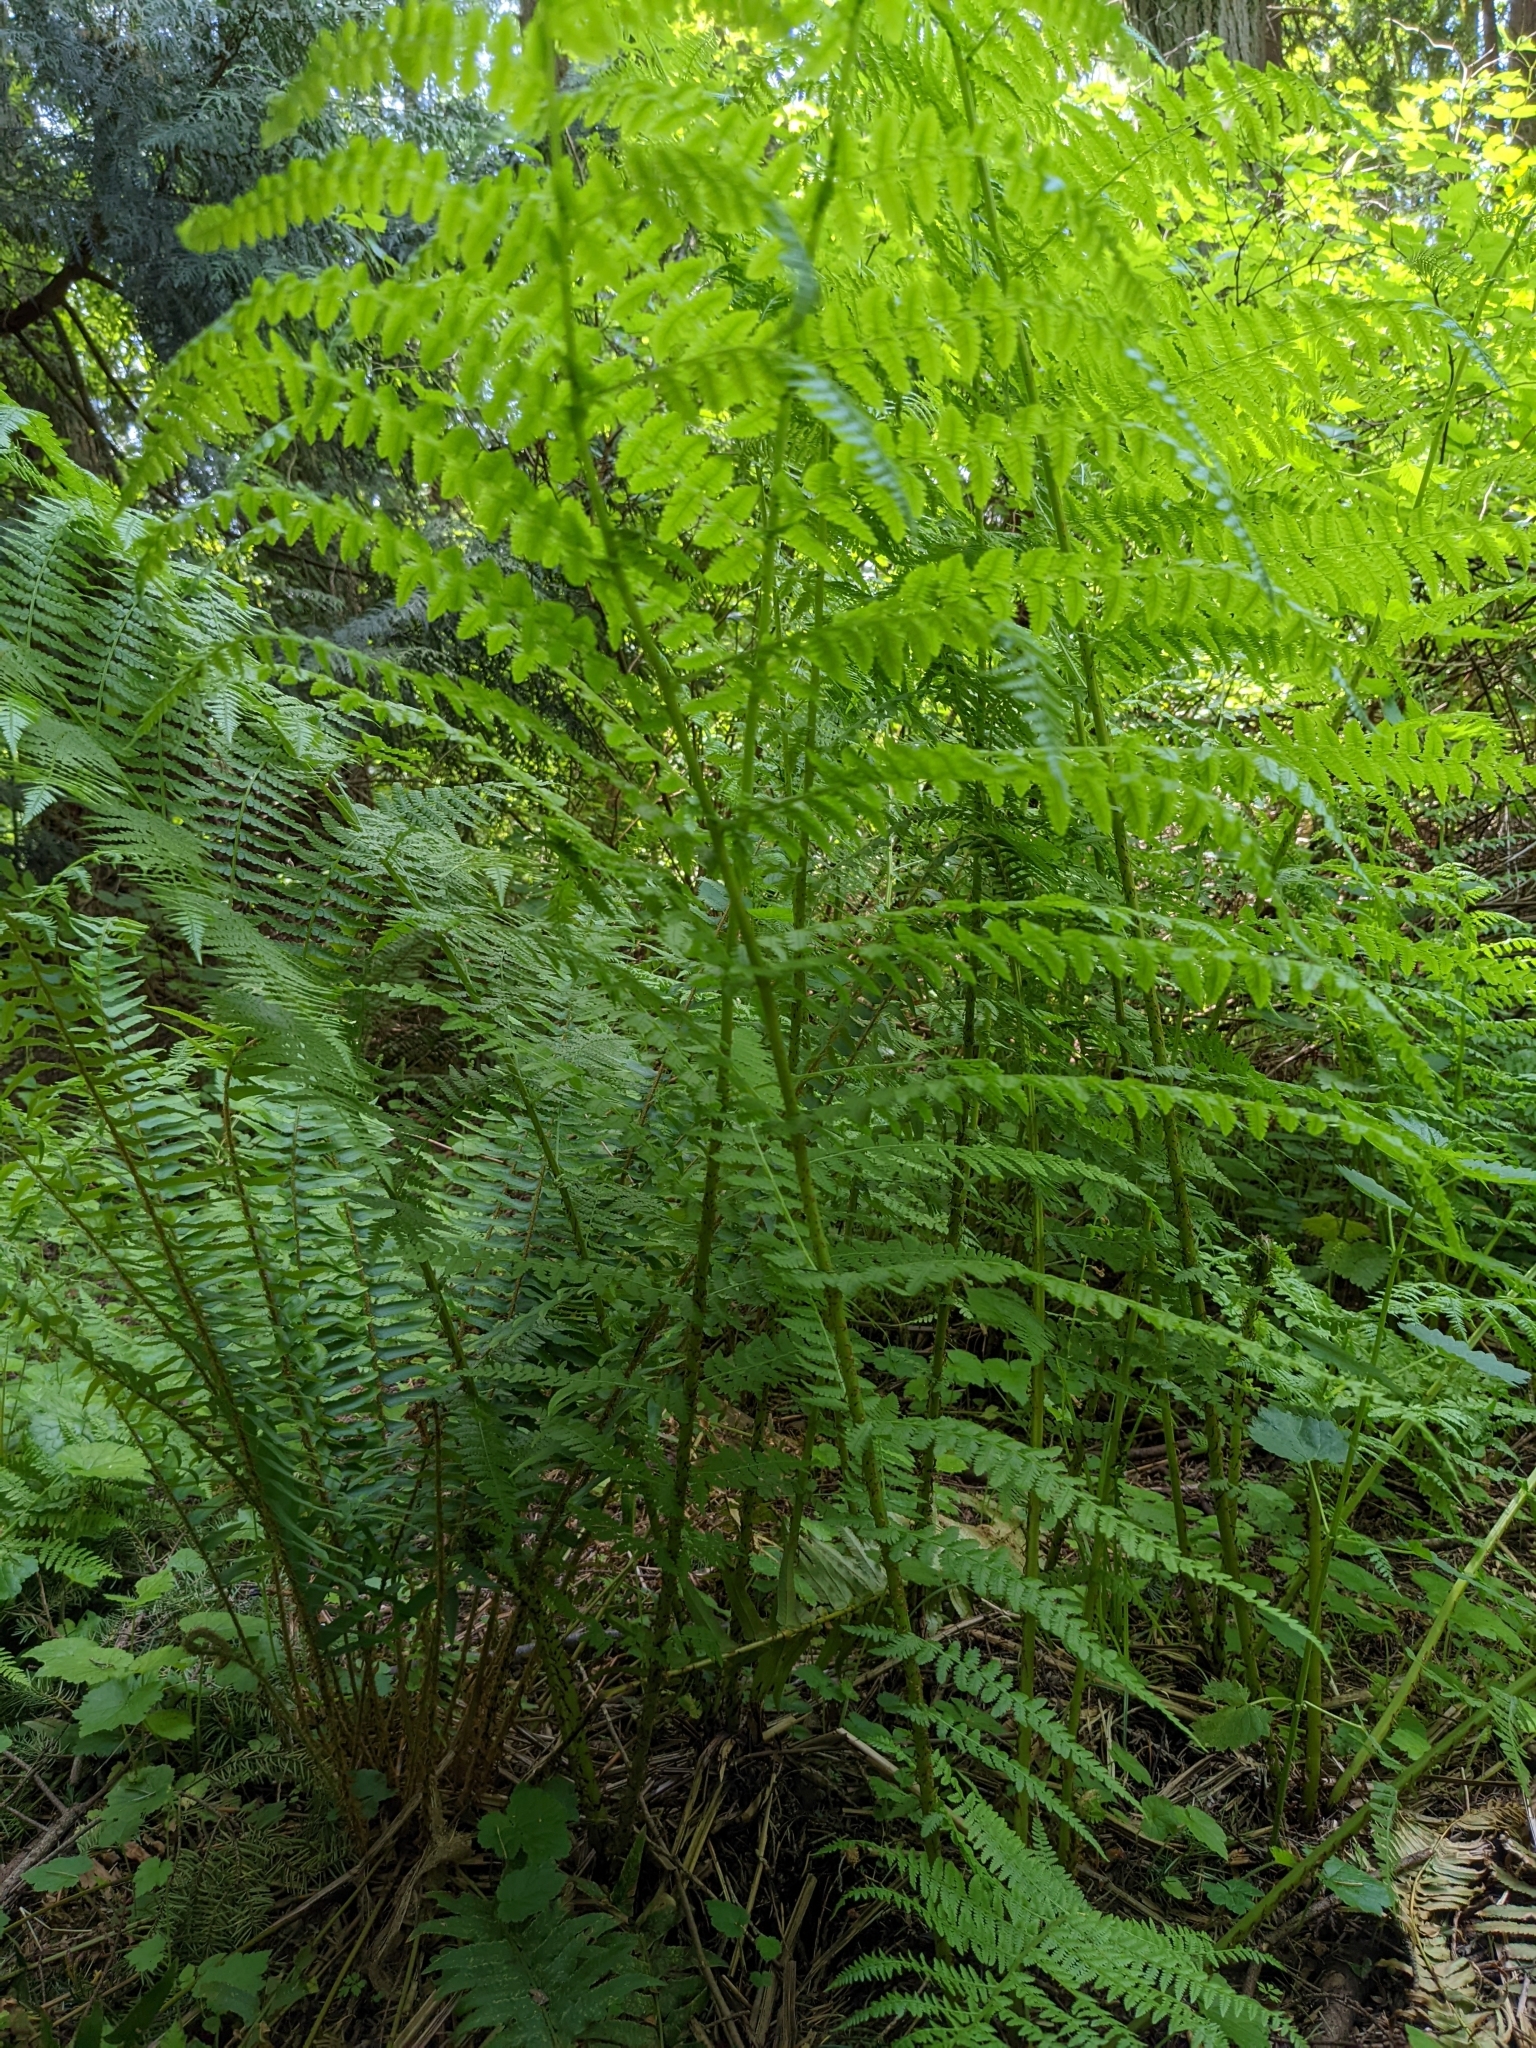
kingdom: Plantae
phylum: Tracheophyta
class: Polypodiopsida
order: Polypodiales
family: Athyriaceae
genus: Athyrium
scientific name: Athyrium filix-femina
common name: Lady fern
